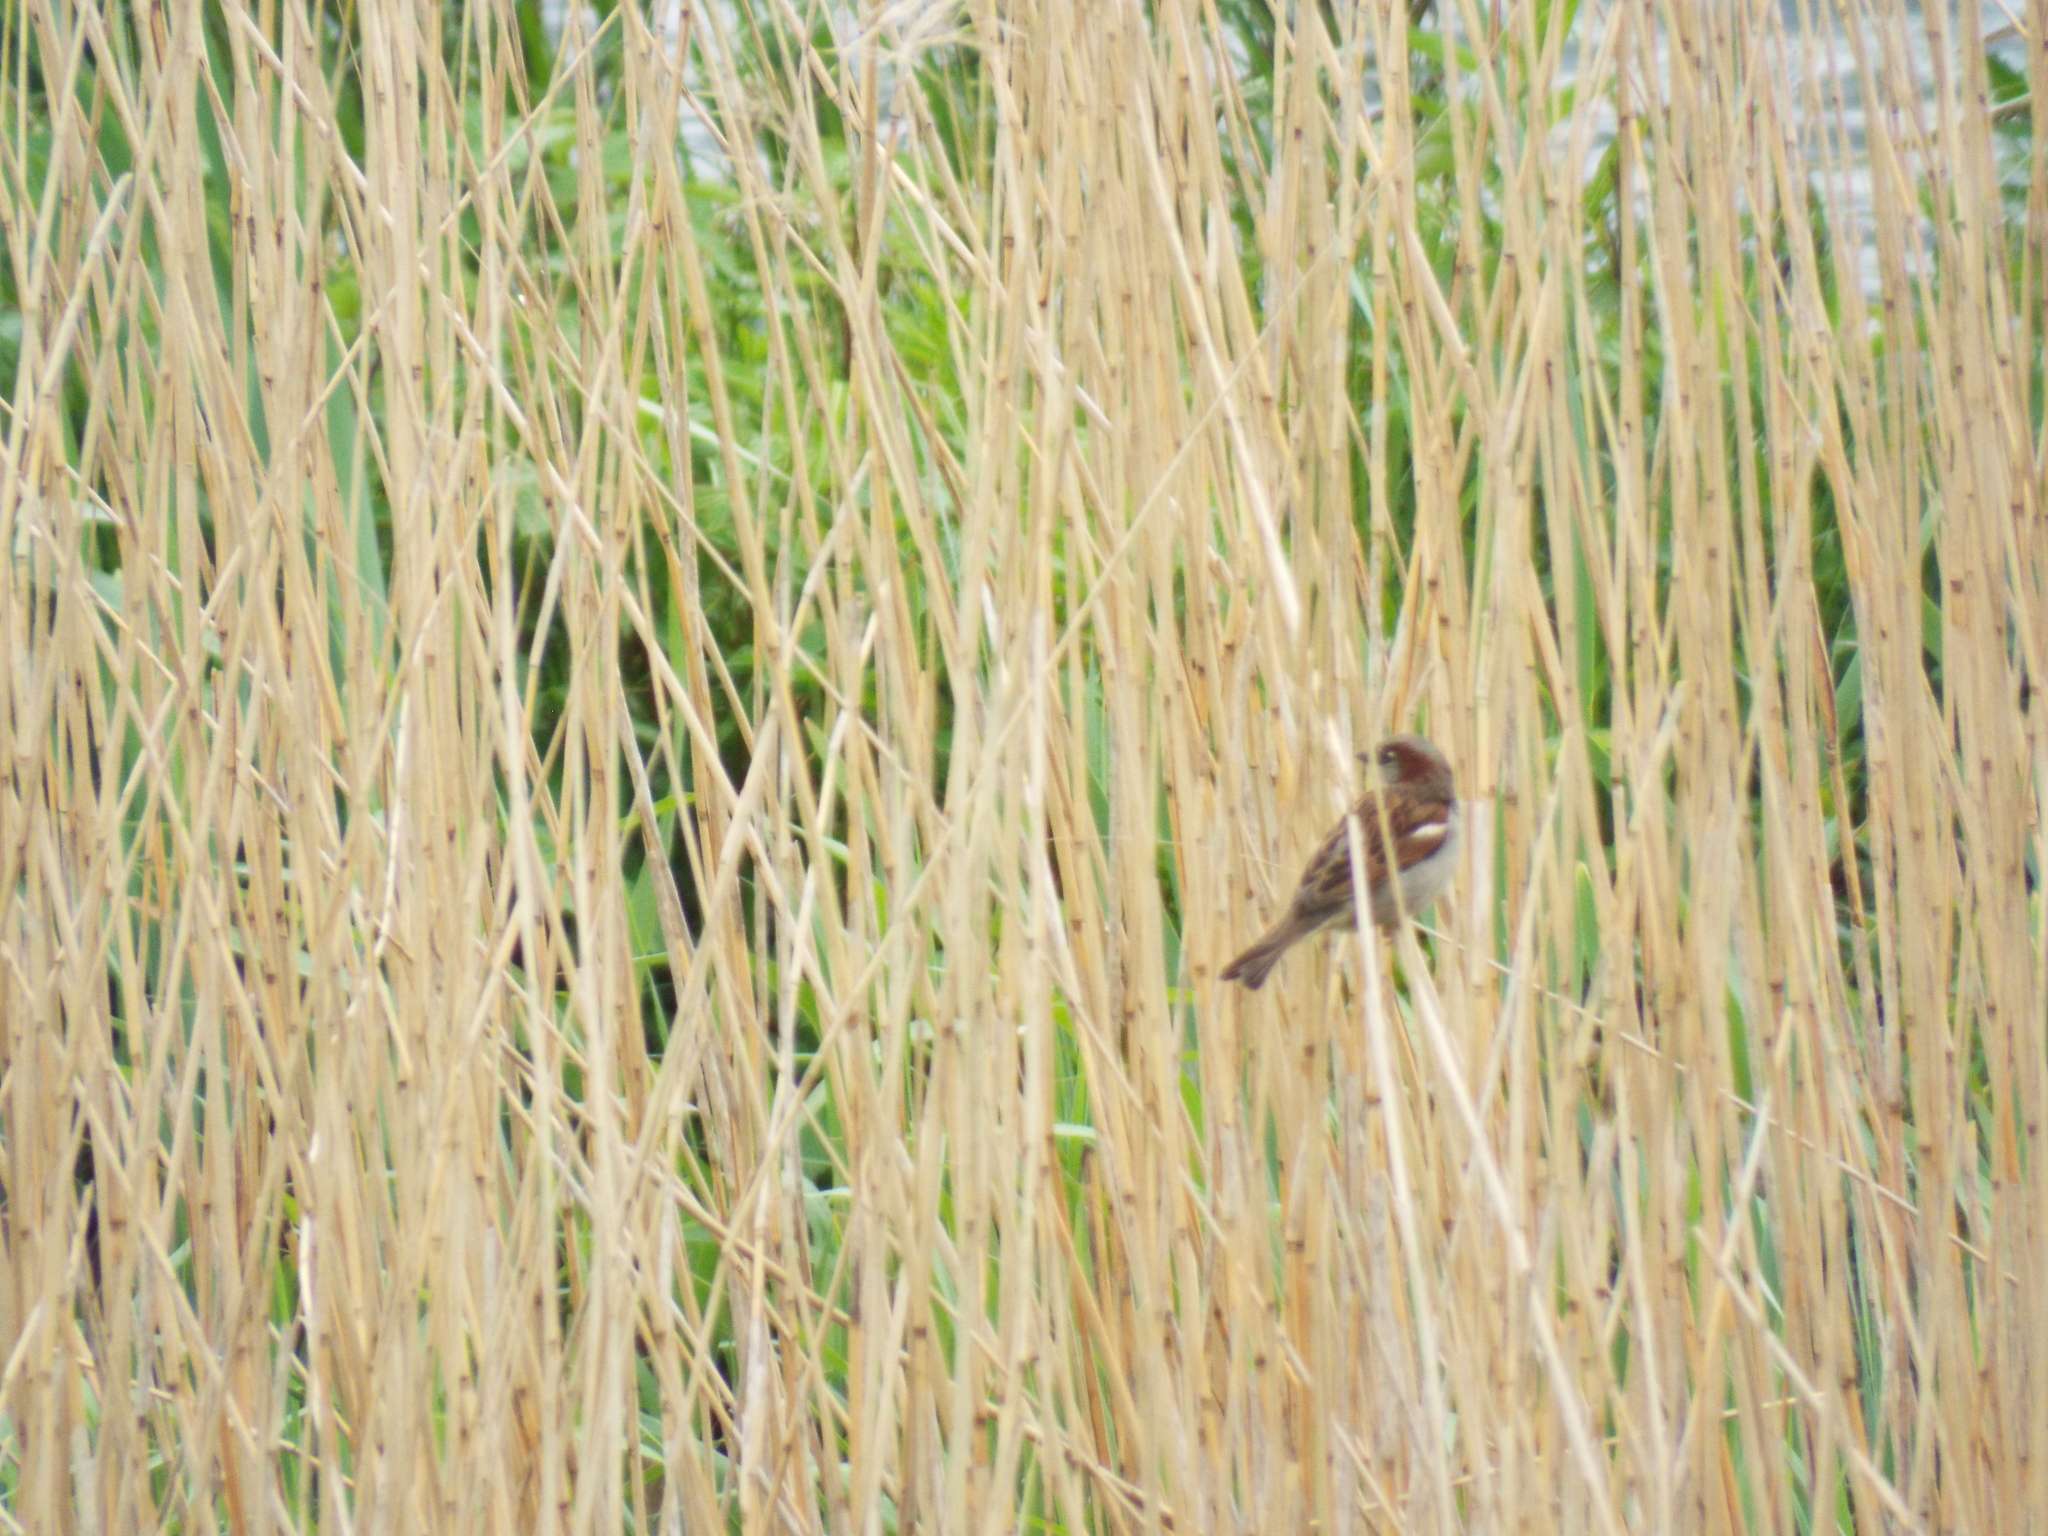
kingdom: Animalia
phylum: Chordata
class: Aves
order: Passeriformes
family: Passeridae
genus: Passer
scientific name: Passer domesticus
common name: House sparrow
